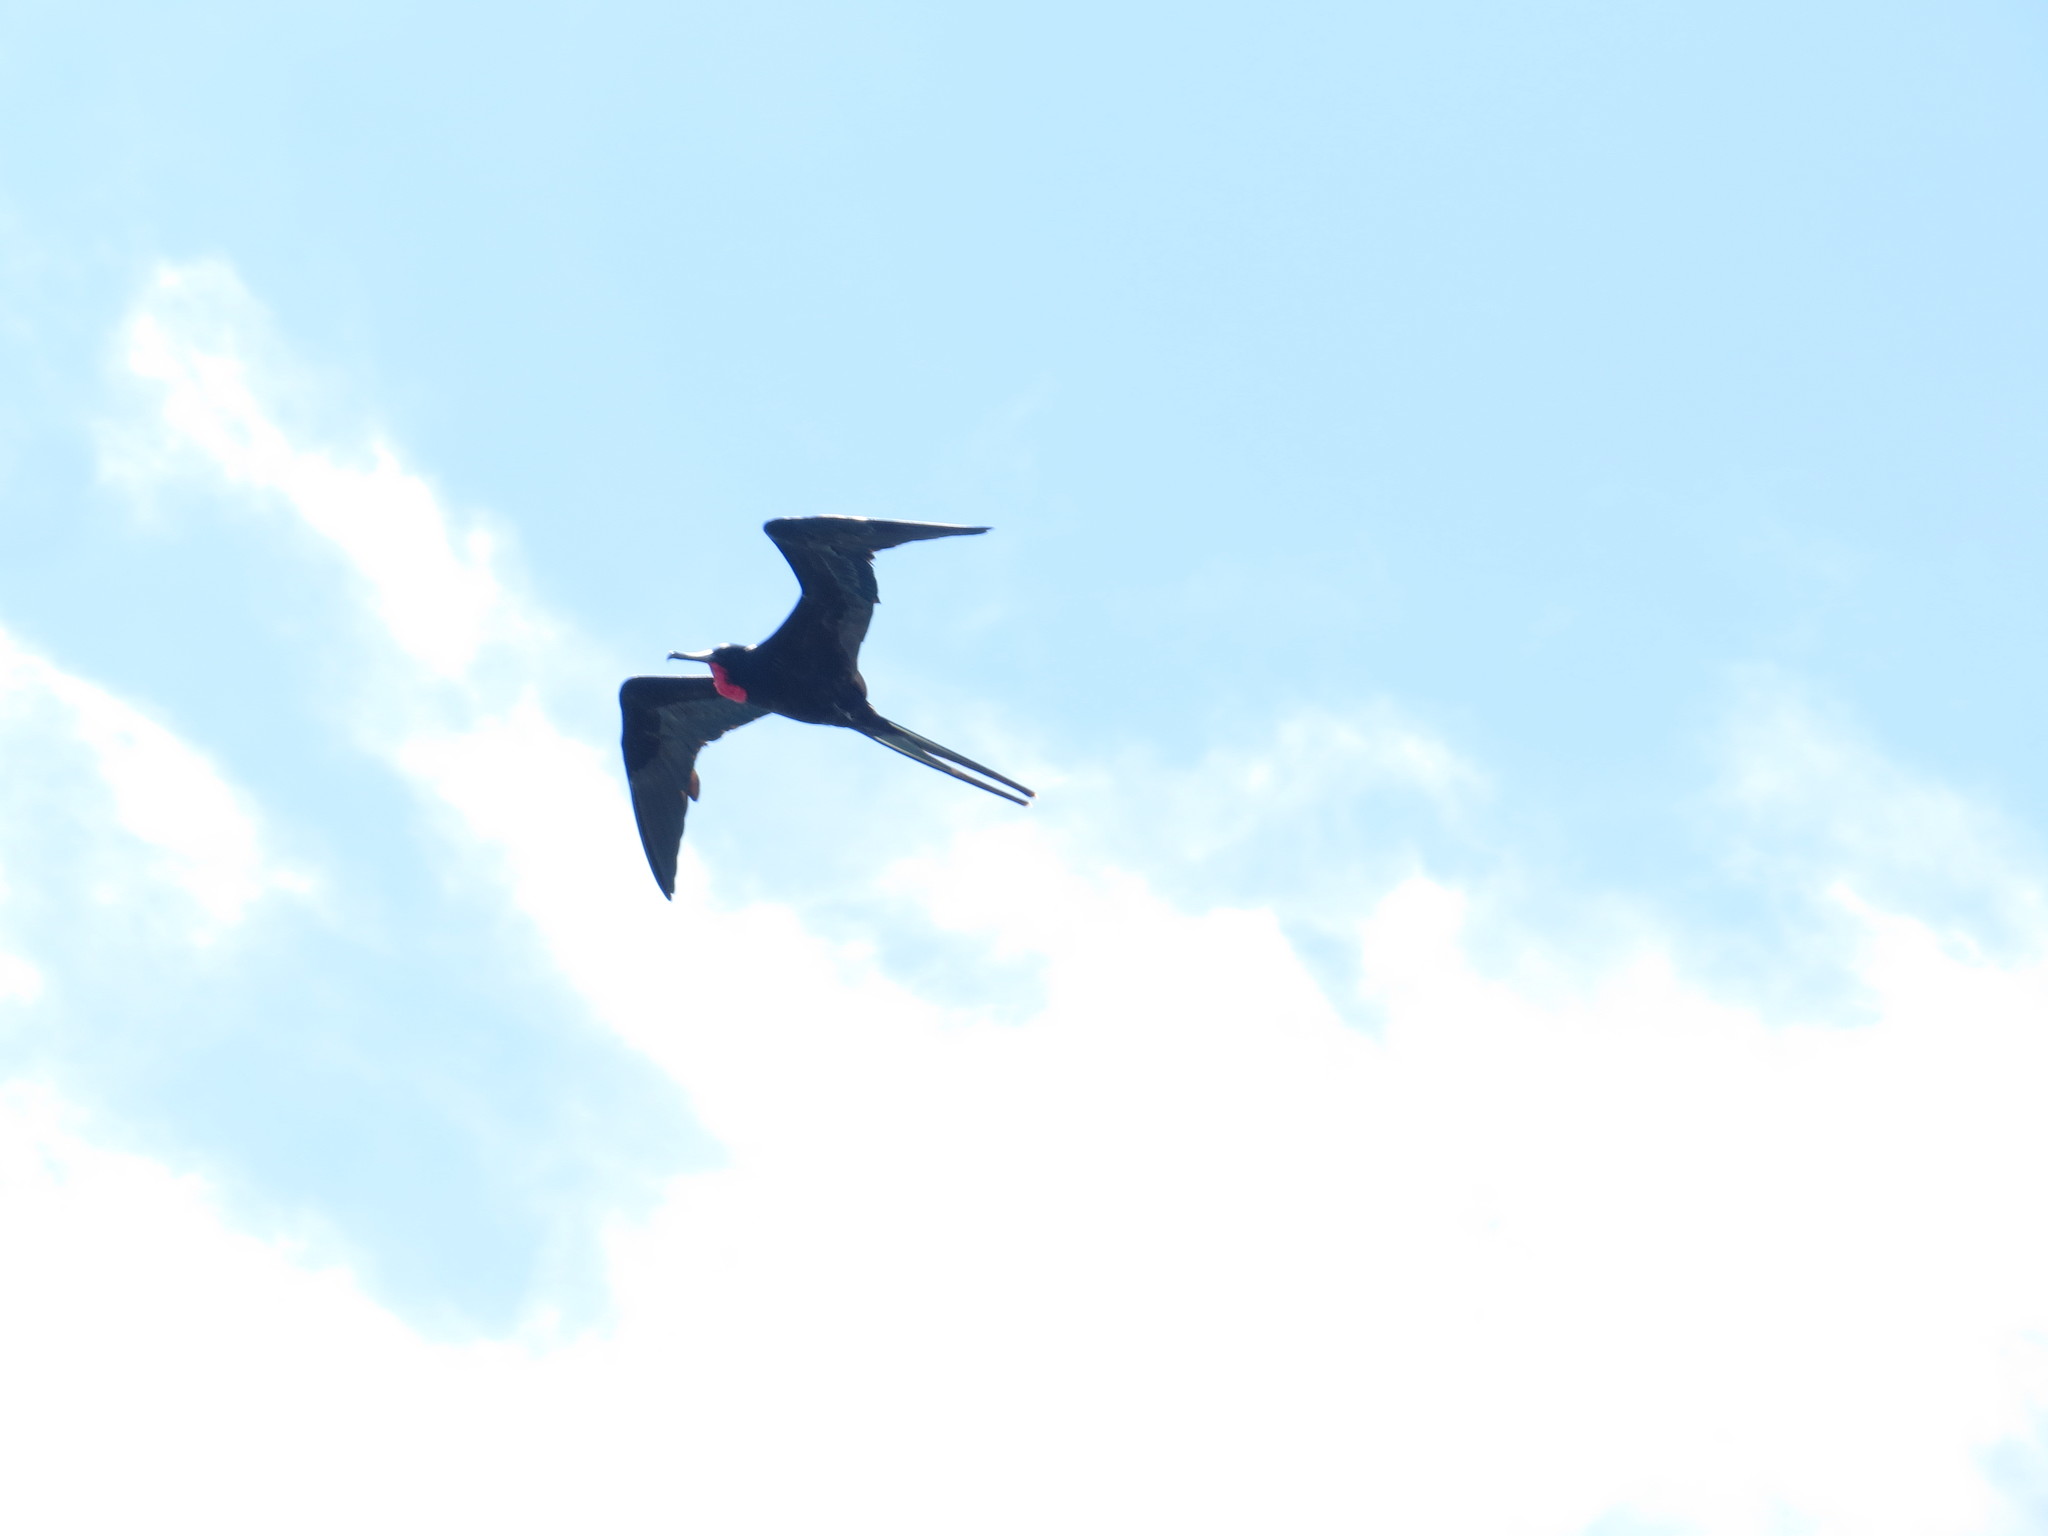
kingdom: Animalia
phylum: Chordata
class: Aves
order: Suliformes
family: Fregatidae
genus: Fregata
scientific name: Fregata
